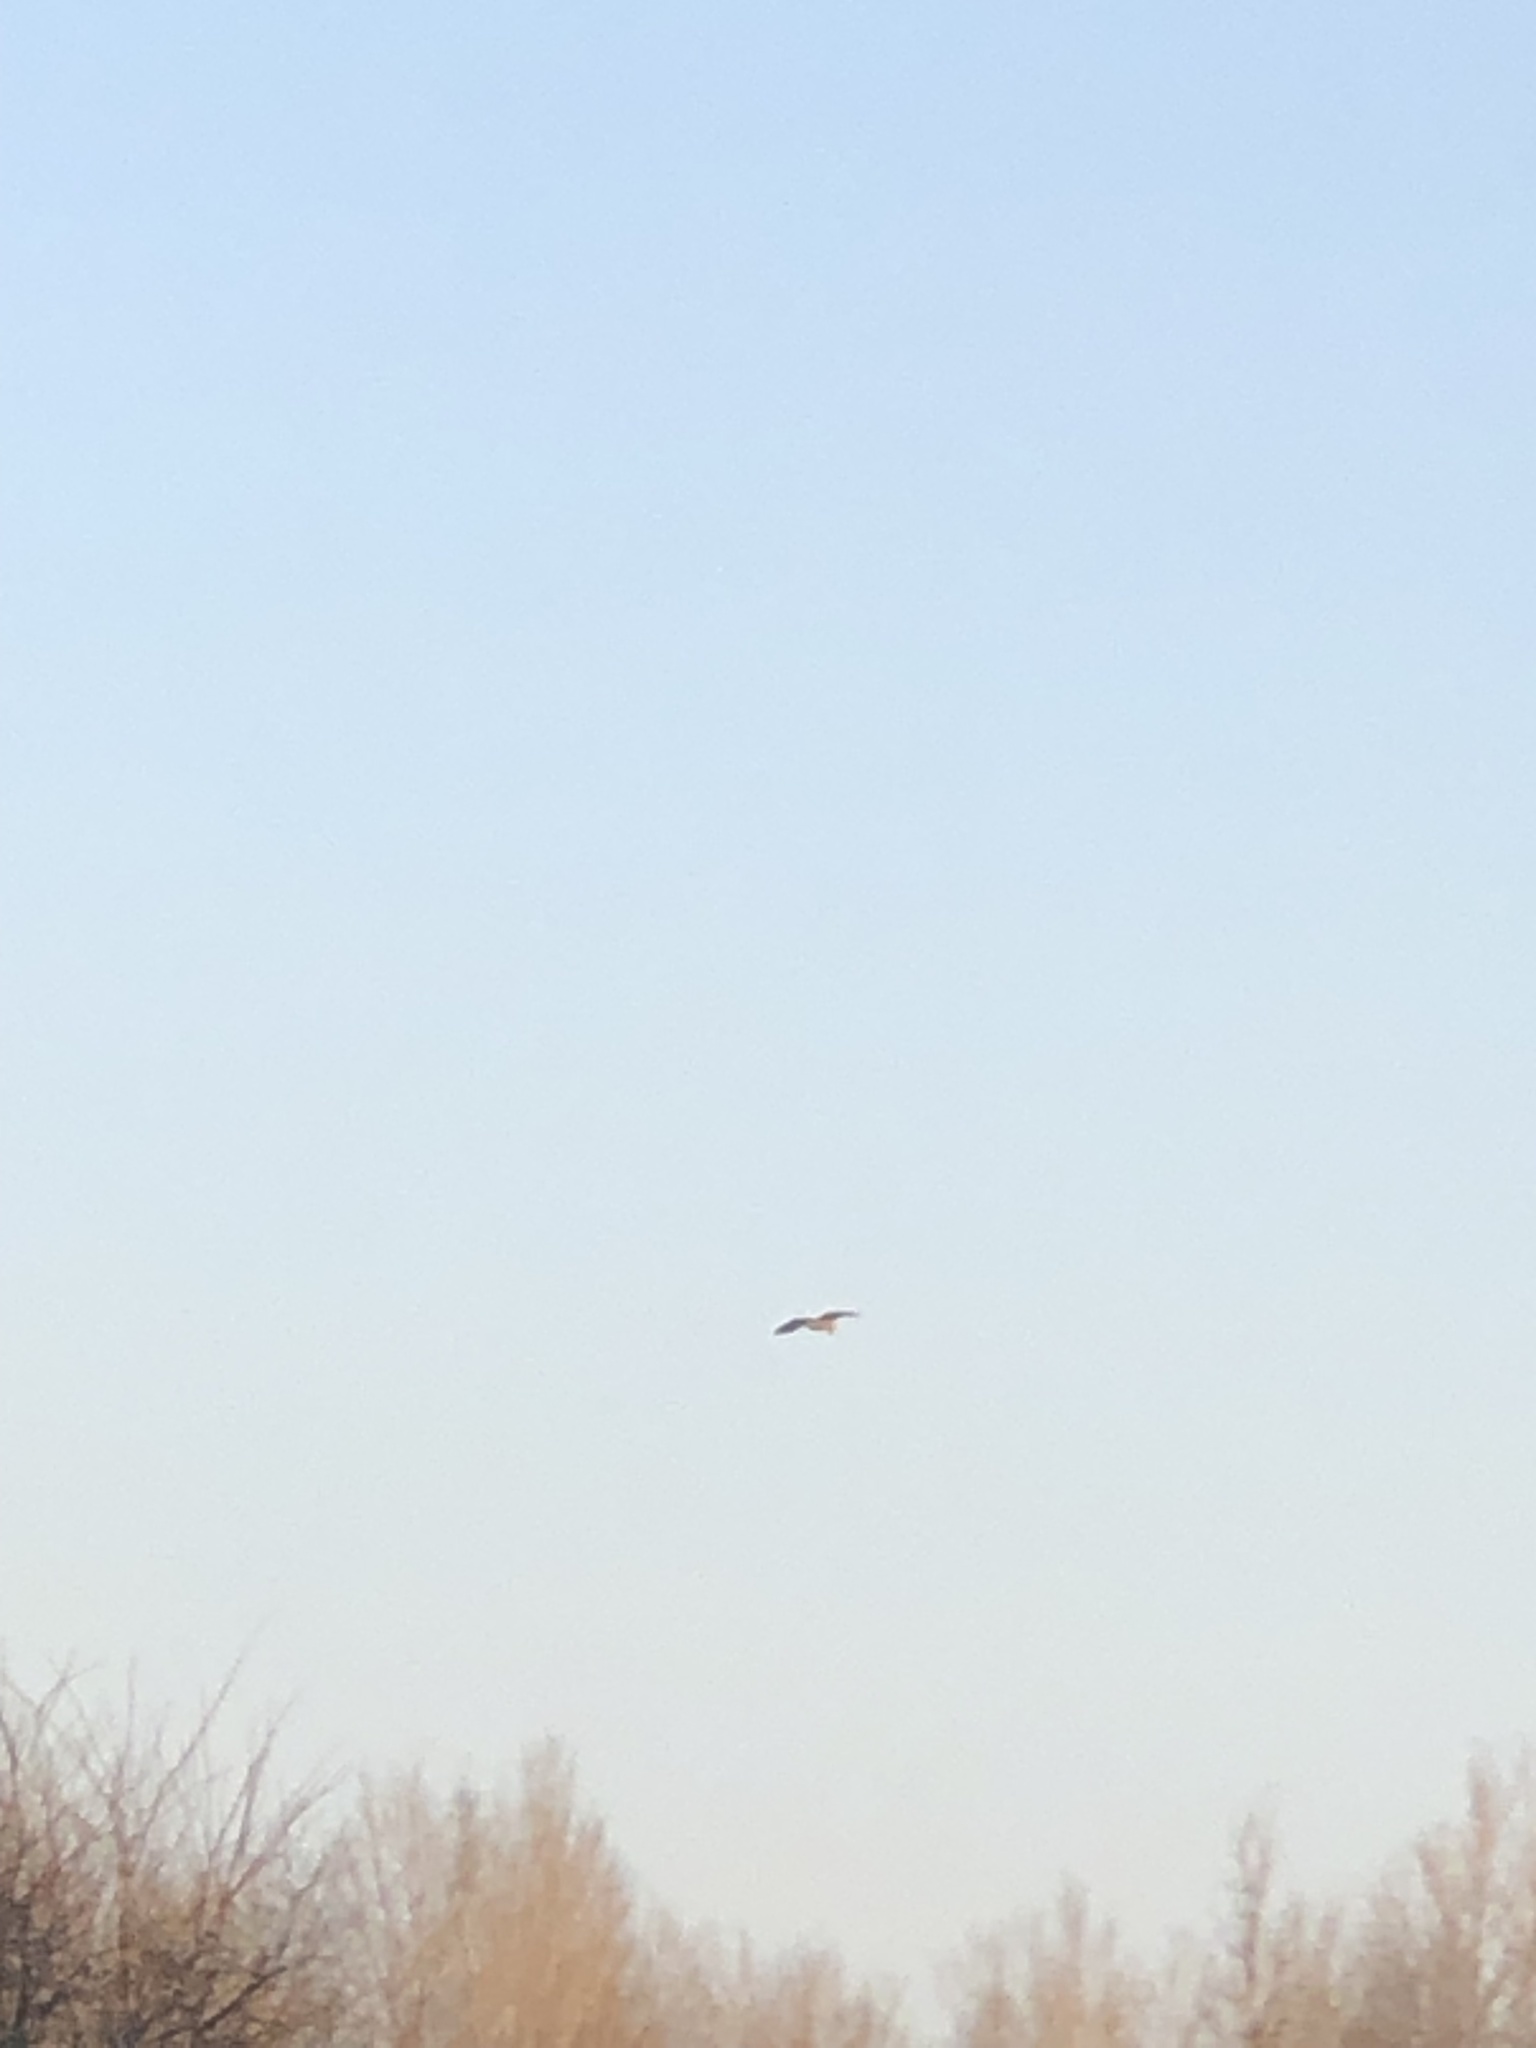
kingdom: Animalia
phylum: Chordata
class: Aves
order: Pelecaniformes
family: Ardeidae
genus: Ardea
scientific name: Ardea herodias
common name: Great blue heron
